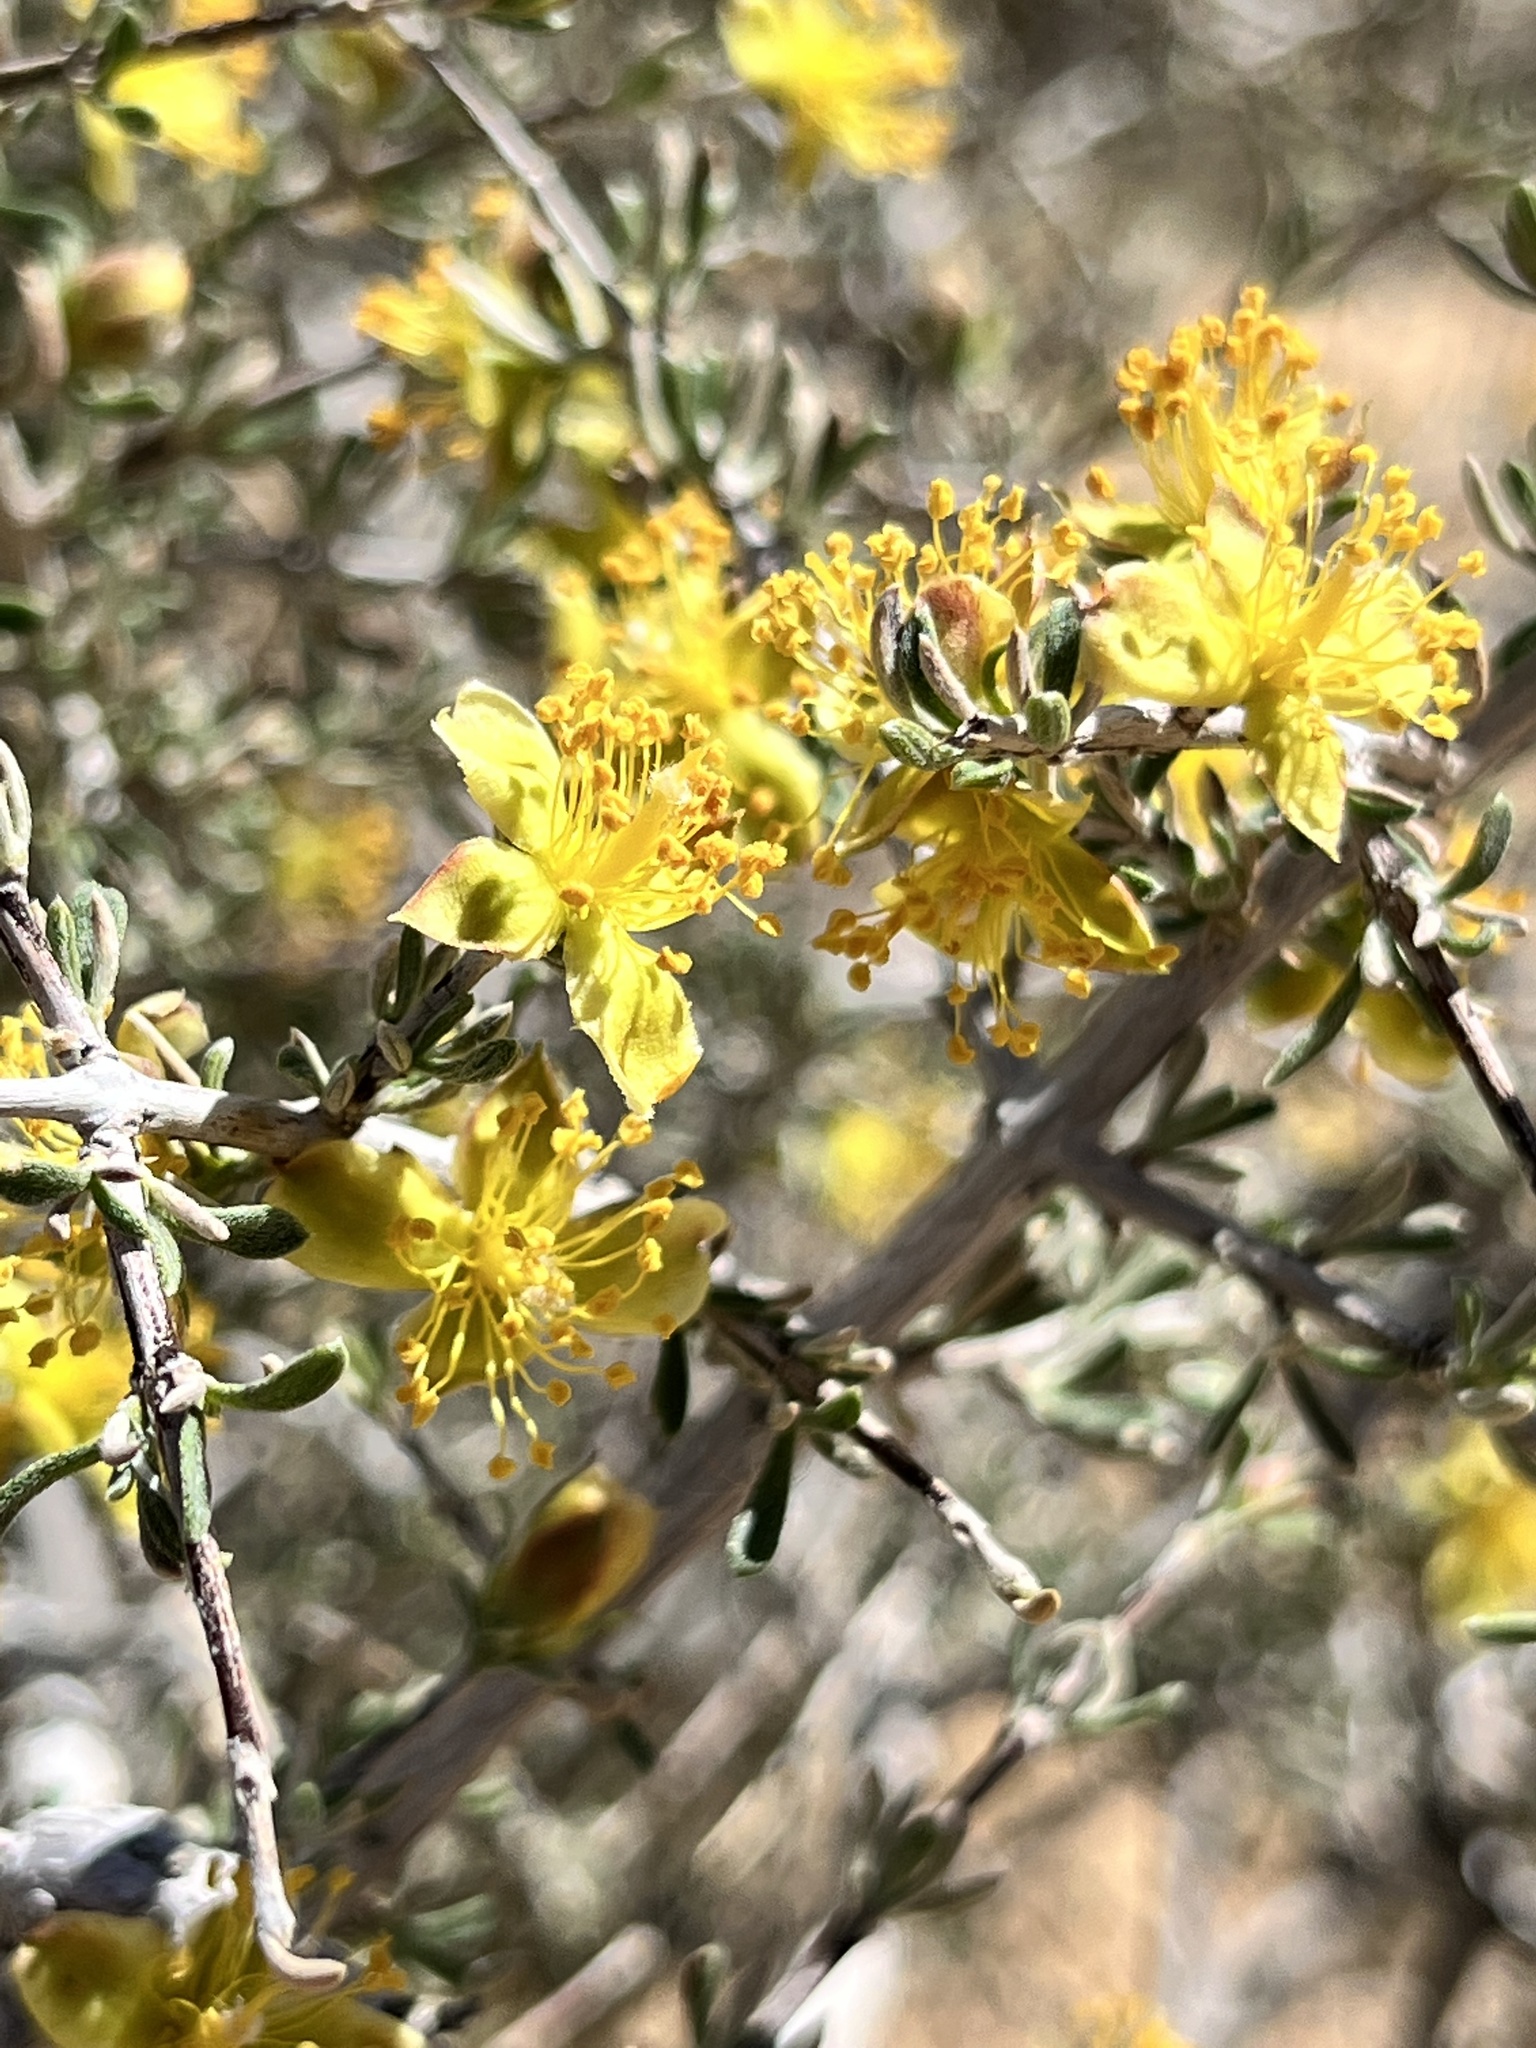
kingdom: Plantae
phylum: Tracheophyta
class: Magnoliopsida
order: Rosales
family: Rosaceae
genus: Coleogyne
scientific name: Coleogyne ramosissima
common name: Blackbrush
